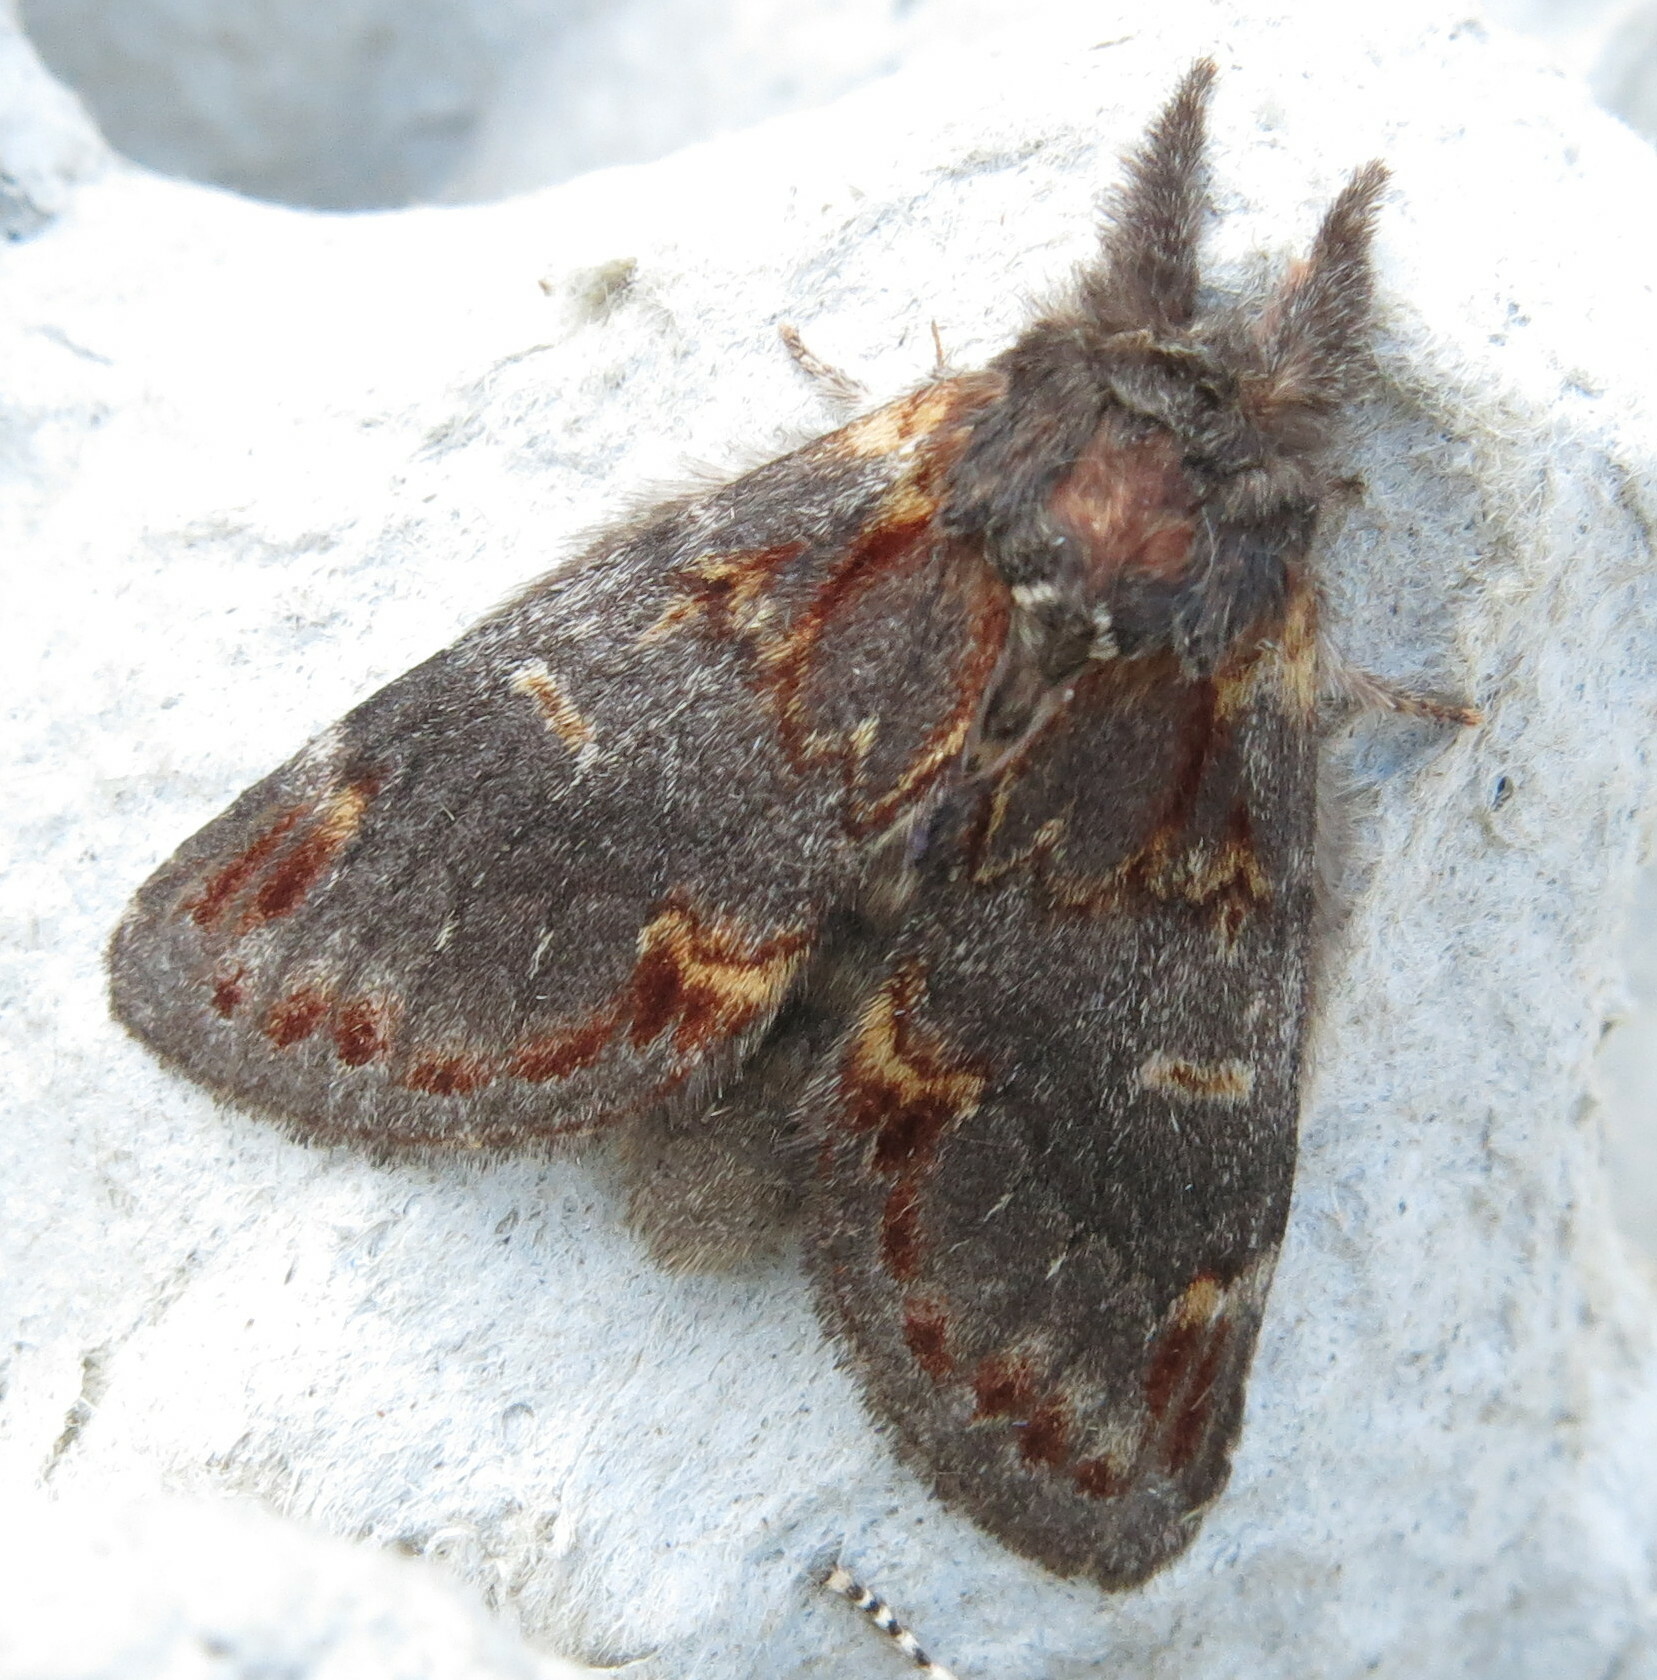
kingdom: Animalia
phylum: Arthropoda
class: Insecta
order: Lepidoptera
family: Notodontidae
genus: Notodonta
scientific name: Notodonta dromedarius
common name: Iron prominent
